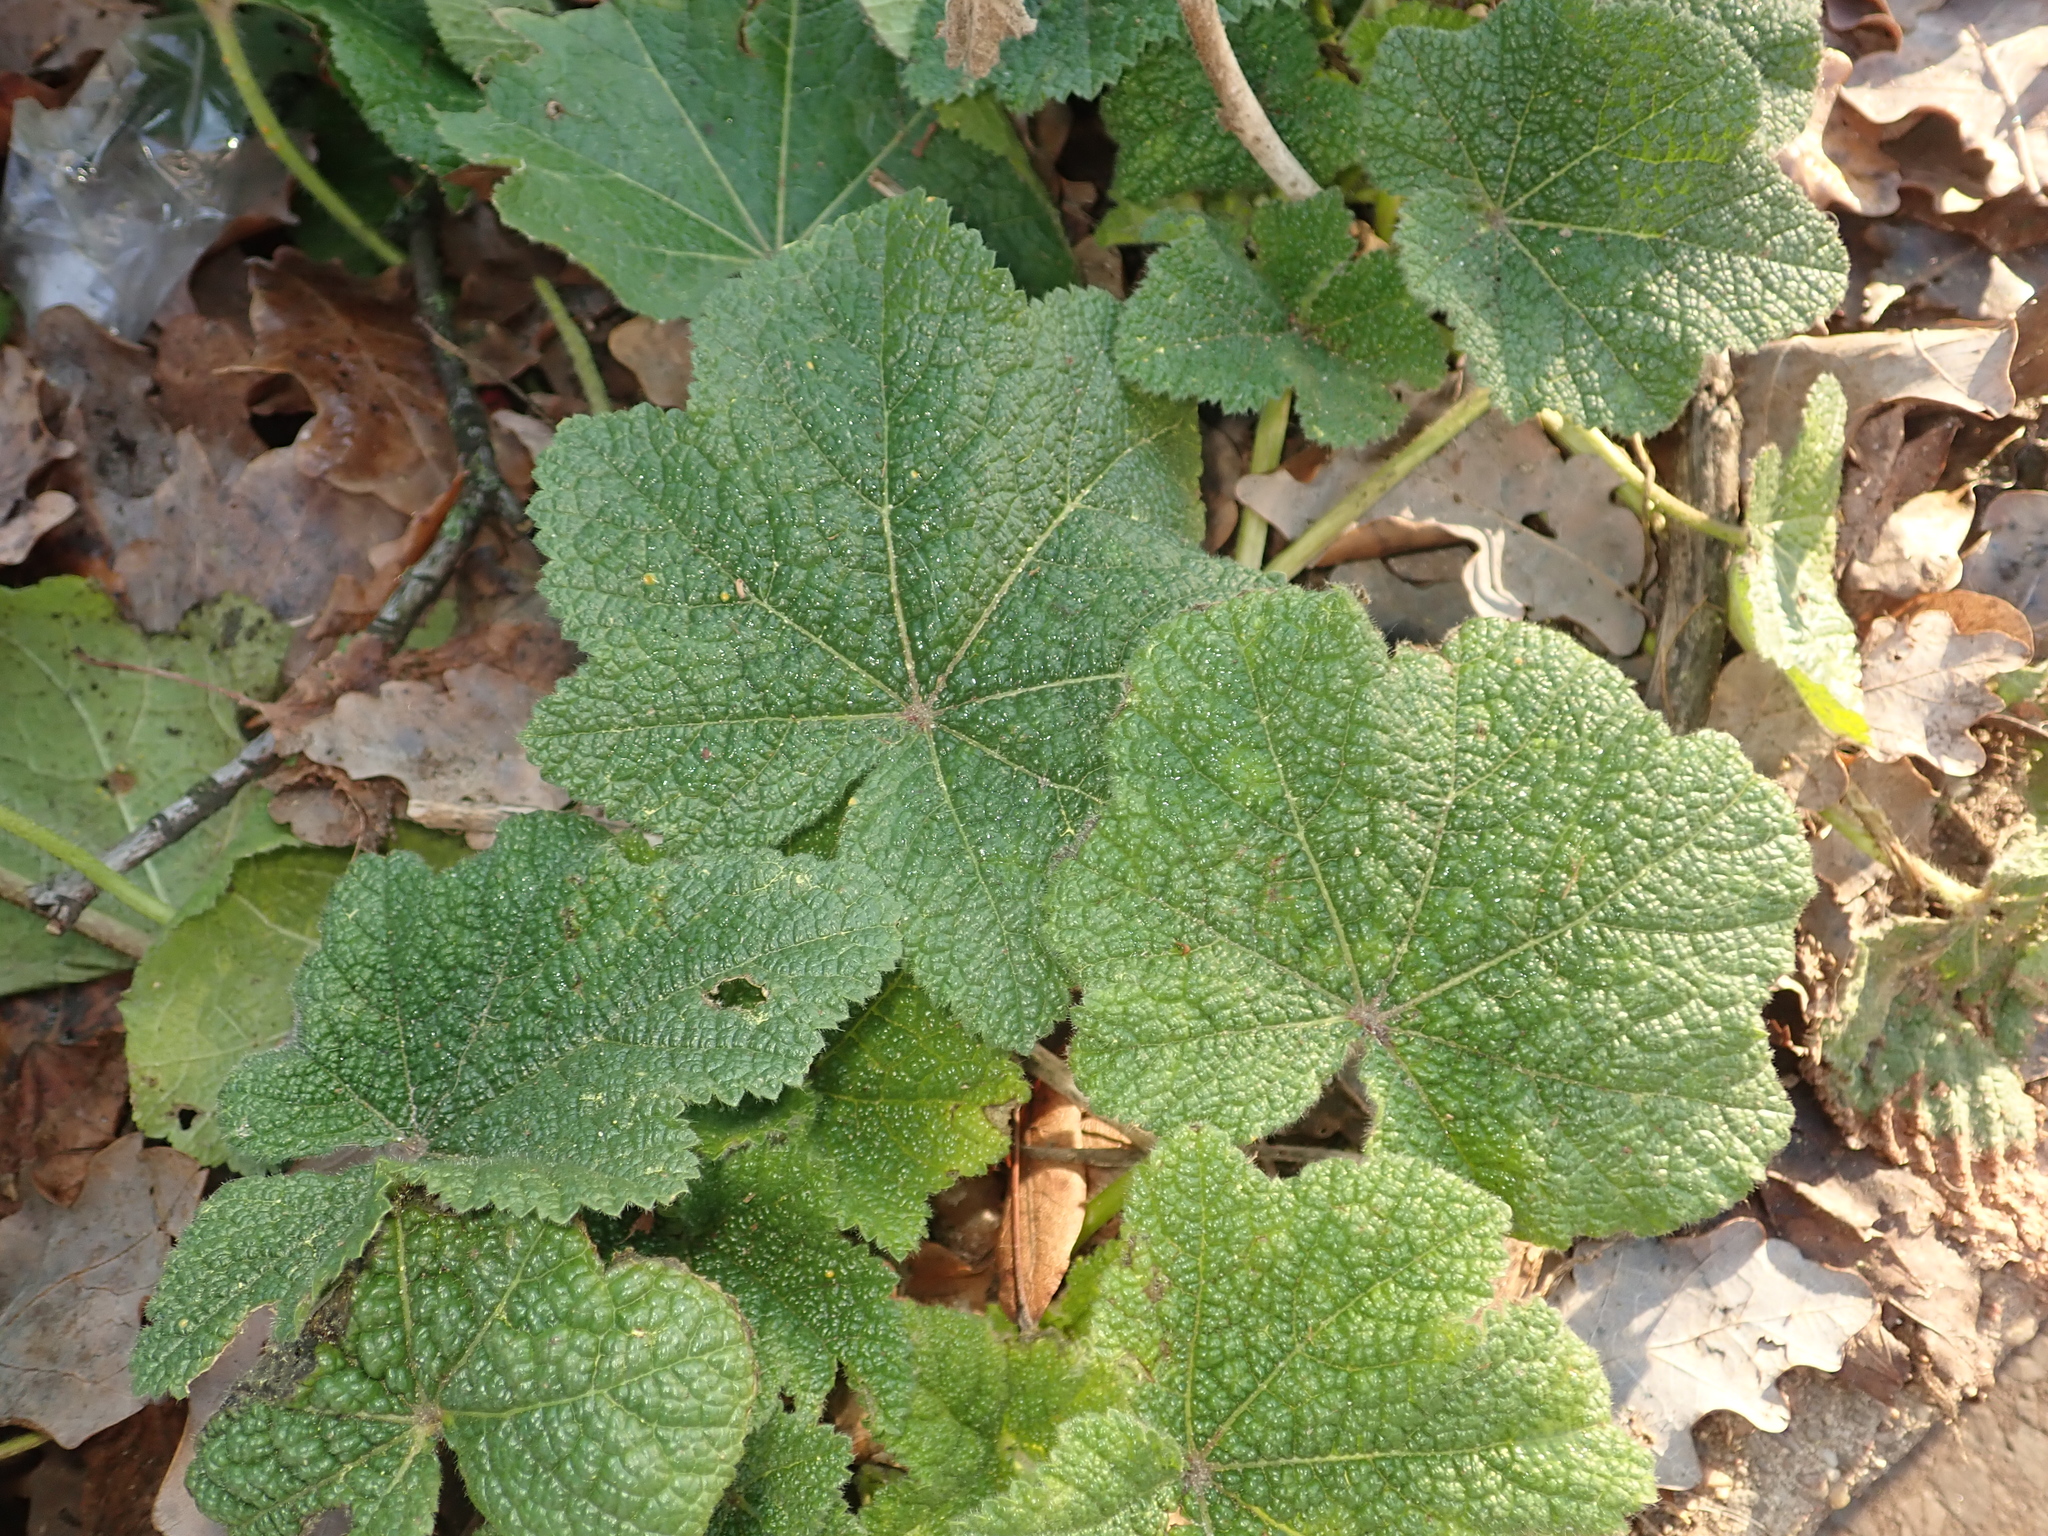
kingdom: Plantae
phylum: Tracheophyta
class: Magnoliopsida
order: Malvales
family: Malvaceae
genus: Alcea
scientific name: Alcea rosea
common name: Hollyhock
